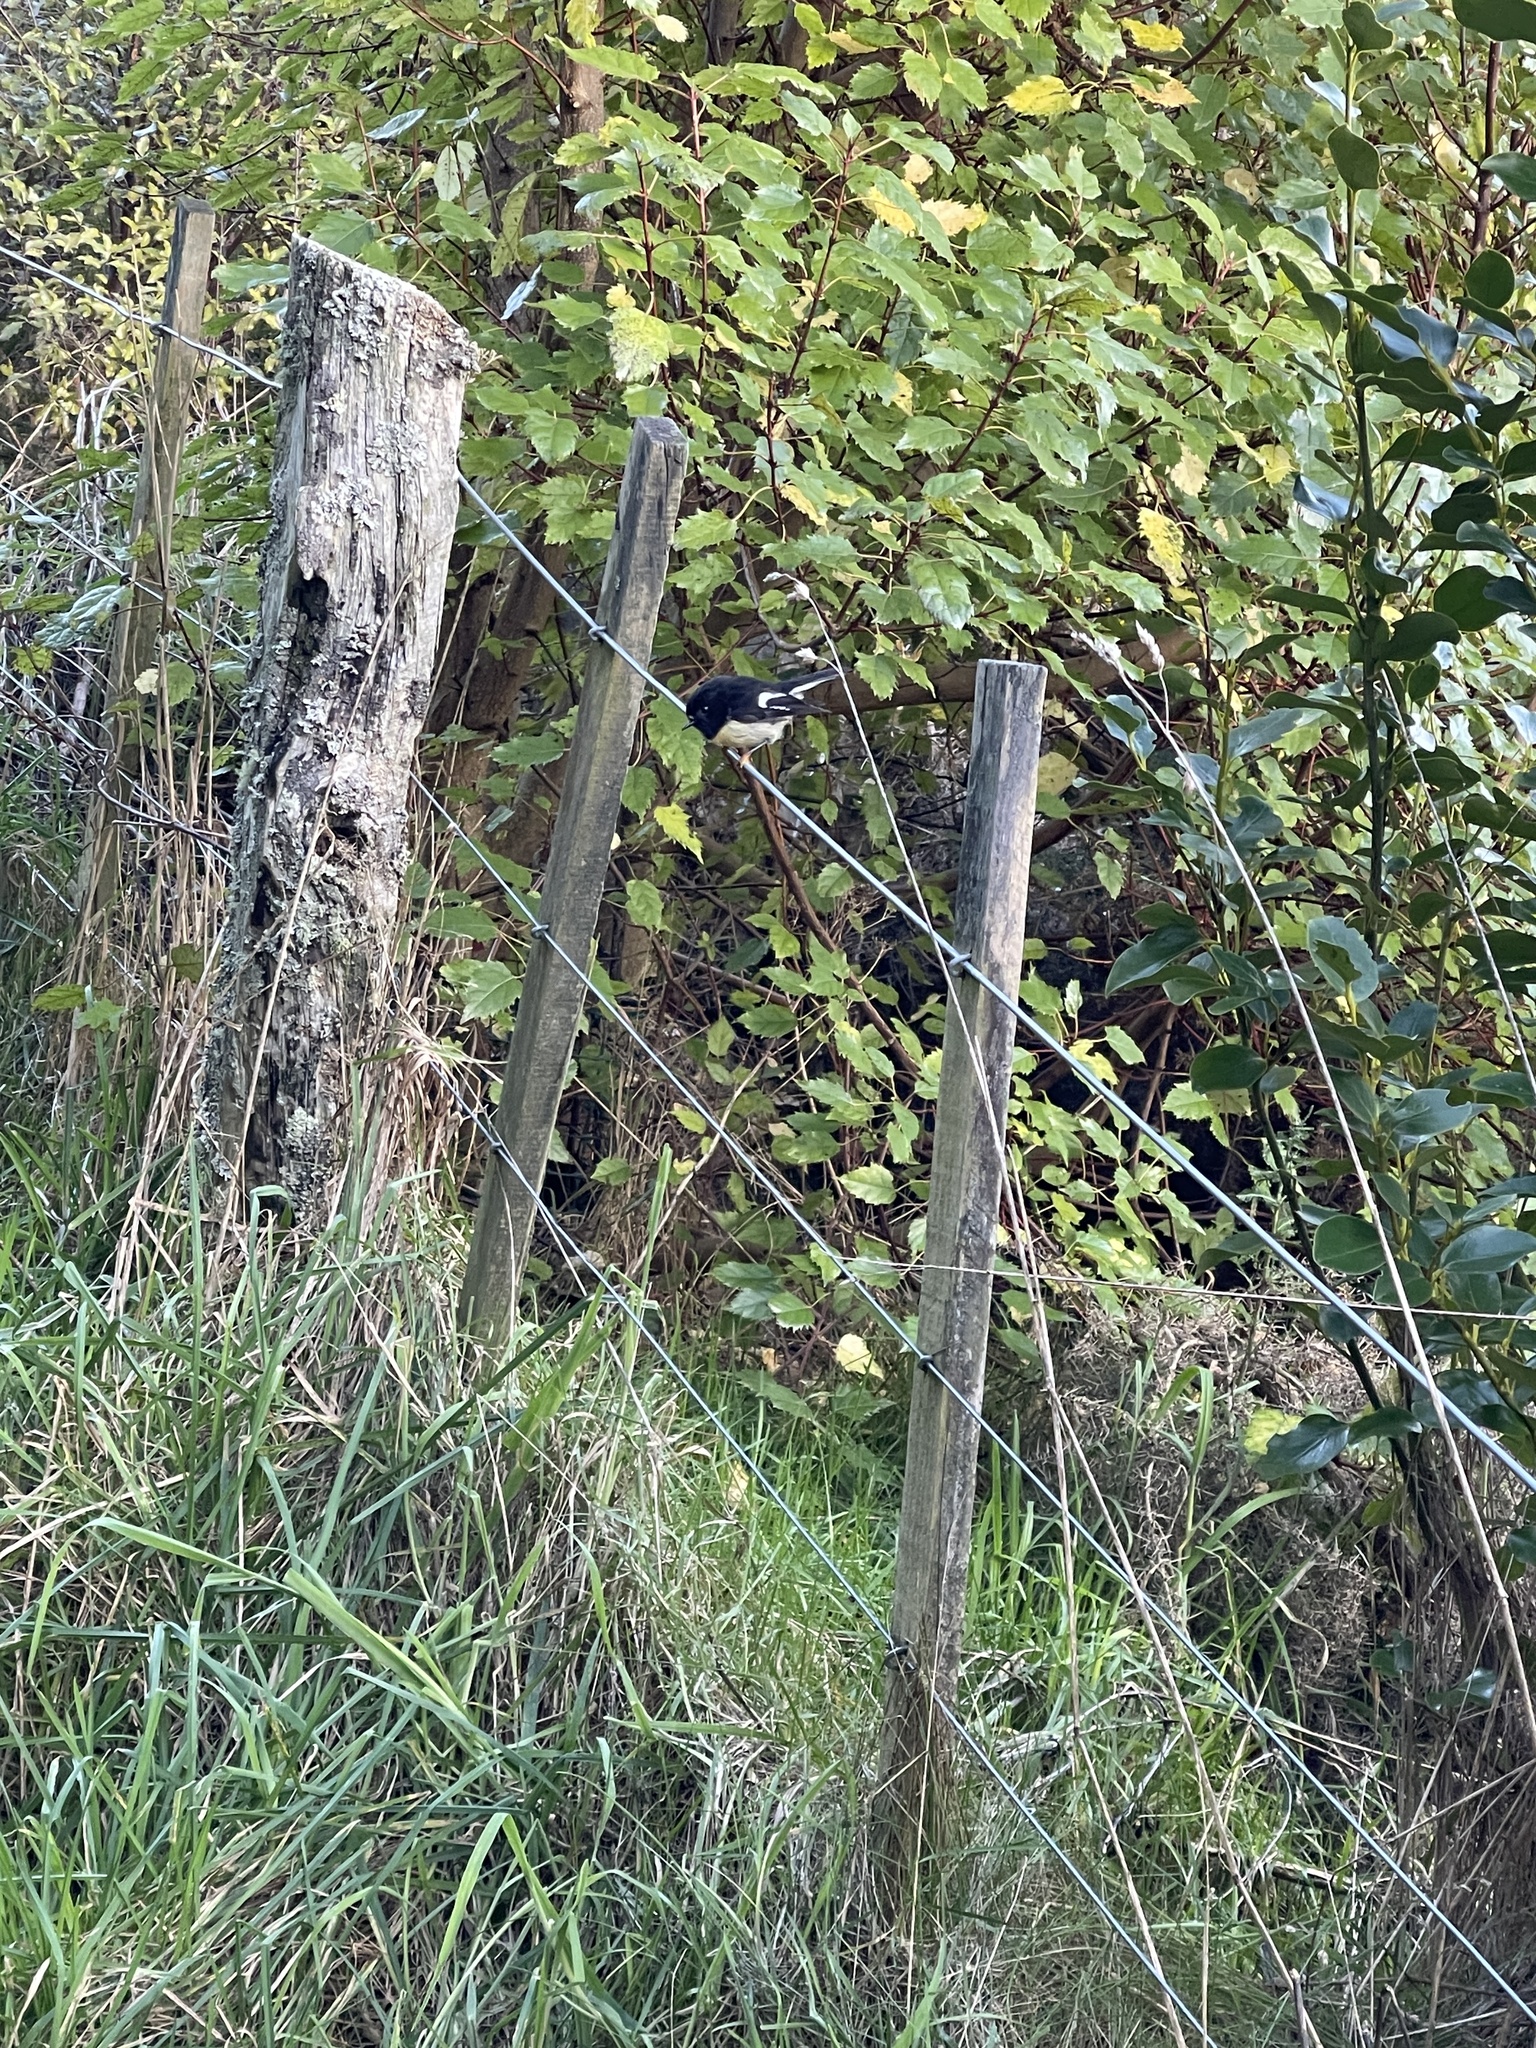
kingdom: Animalia
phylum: Chordata
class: Aves
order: Passeriformes
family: Petroicidae
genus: Petroica
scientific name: Petroica macrocephala
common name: Tomtit
